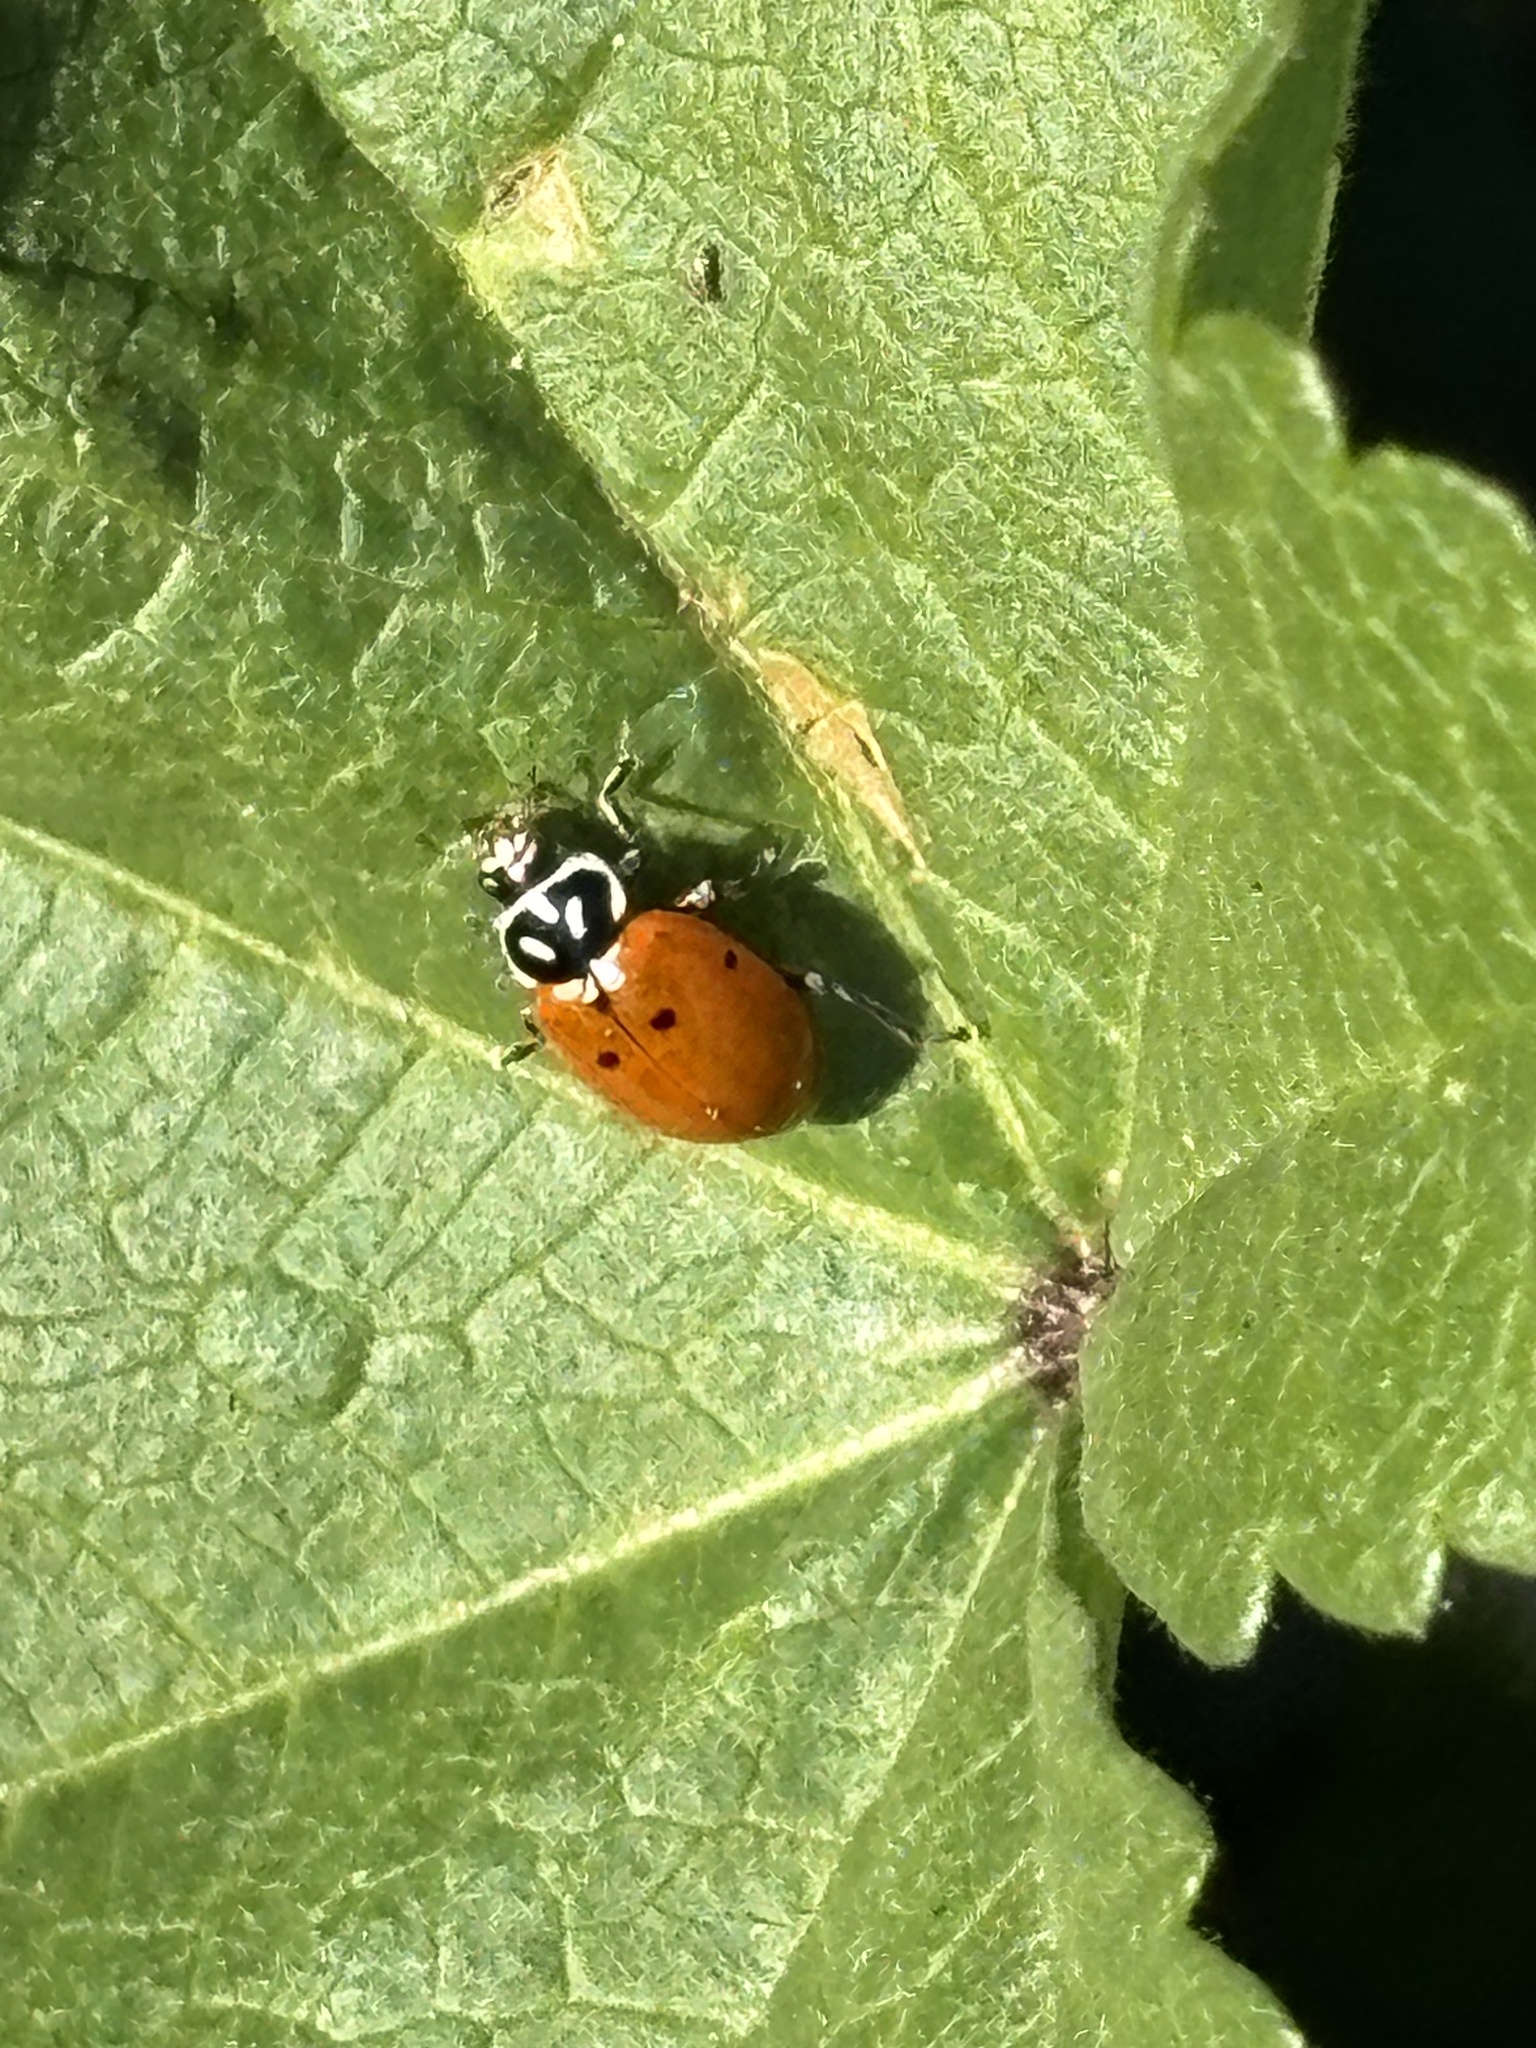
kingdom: Animalia
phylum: Arthropoda
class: Insecta
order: Coleoptera
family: Coccinellidae
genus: Hippodamia
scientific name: Hippodamia convergens
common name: Convergent lady beetle
